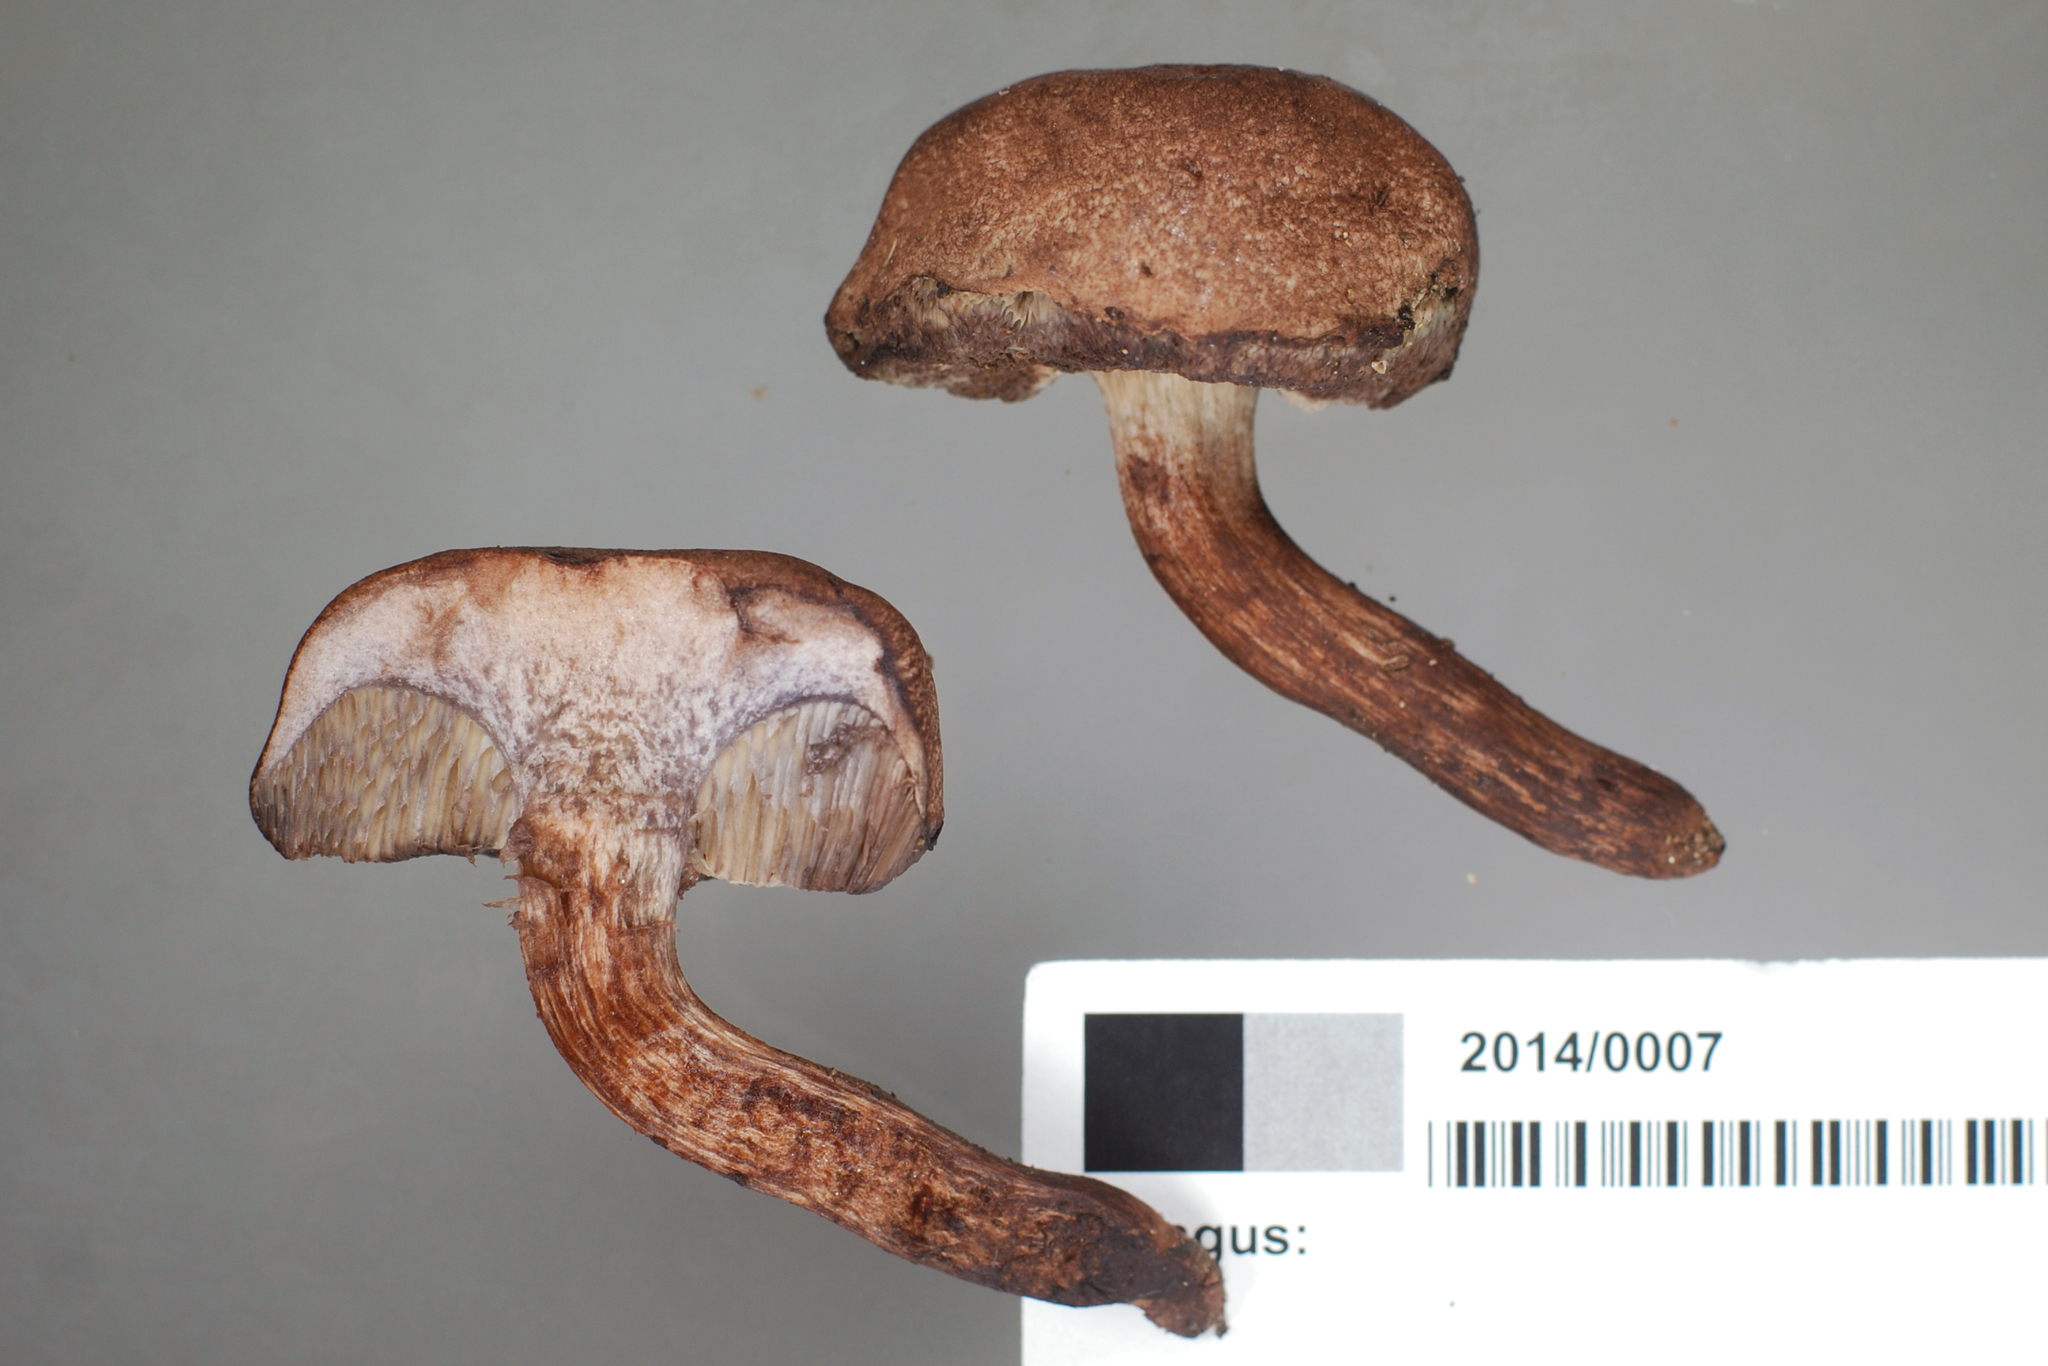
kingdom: Fungi
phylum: Basidiomycota
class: Agaricomycetes
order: Boletales
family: Boletaceae
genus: Porphyrellus
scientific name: Porphyrellus brunneus
